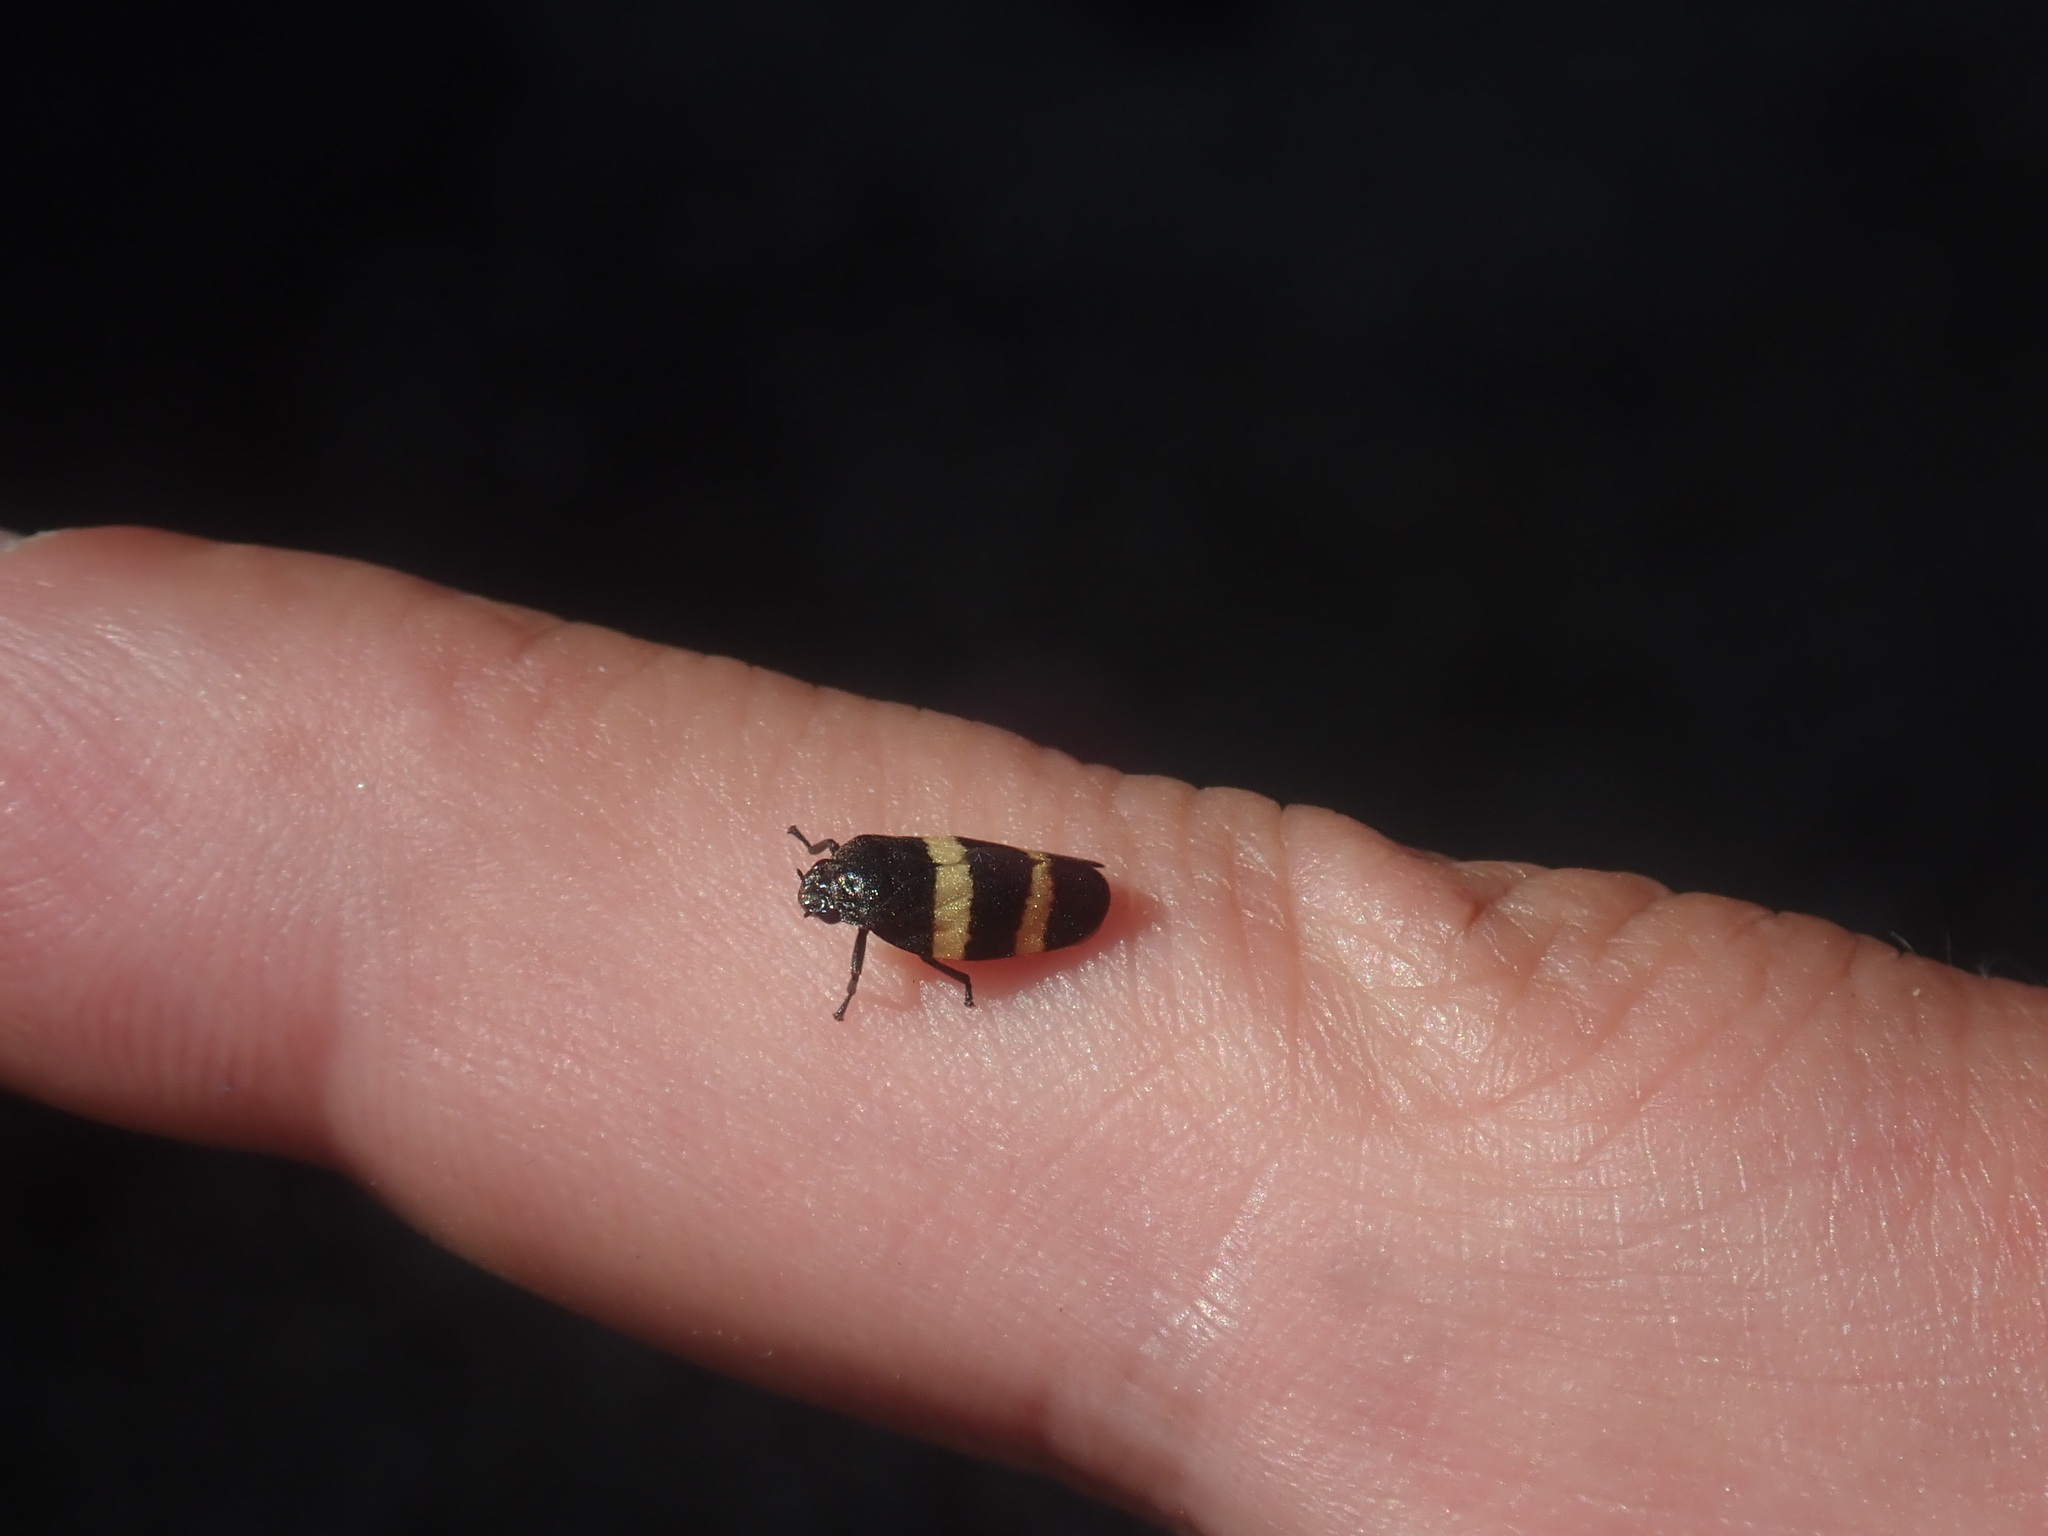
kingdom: Animalia
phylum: Arthropoda
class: Insecta
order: Hemiptera
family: Cercopidae
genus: Prosapia
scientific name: Prosapia
